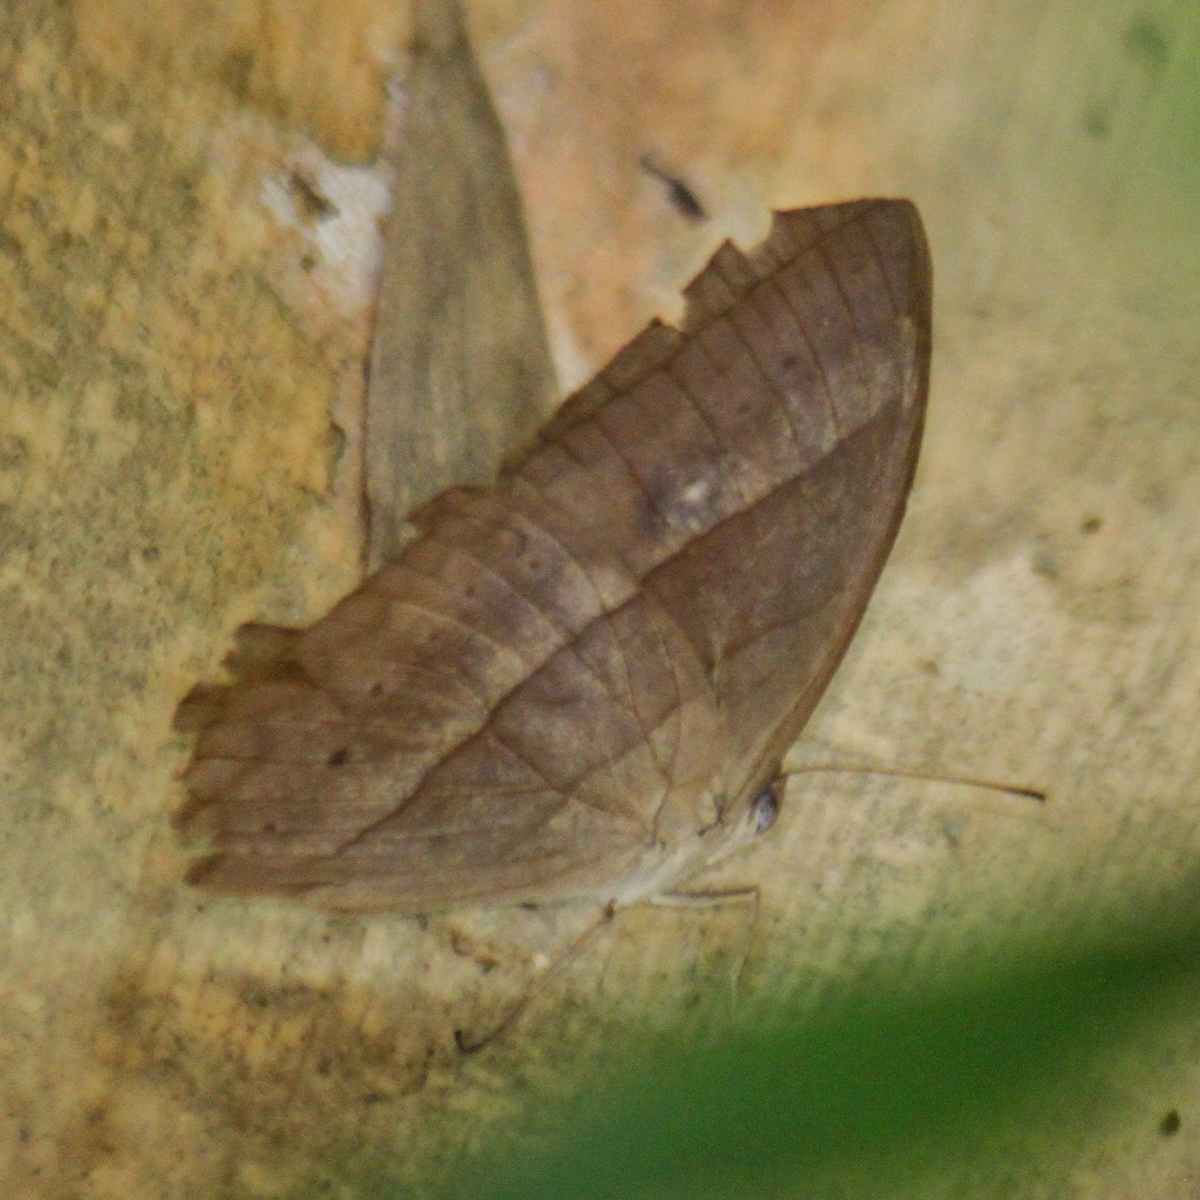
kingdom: Animalia
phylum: Arthropoda
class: Insecta
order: Lepidoptera
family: Nymphalidae
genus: Mycalesis
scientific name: Mycalesis mnasicles
